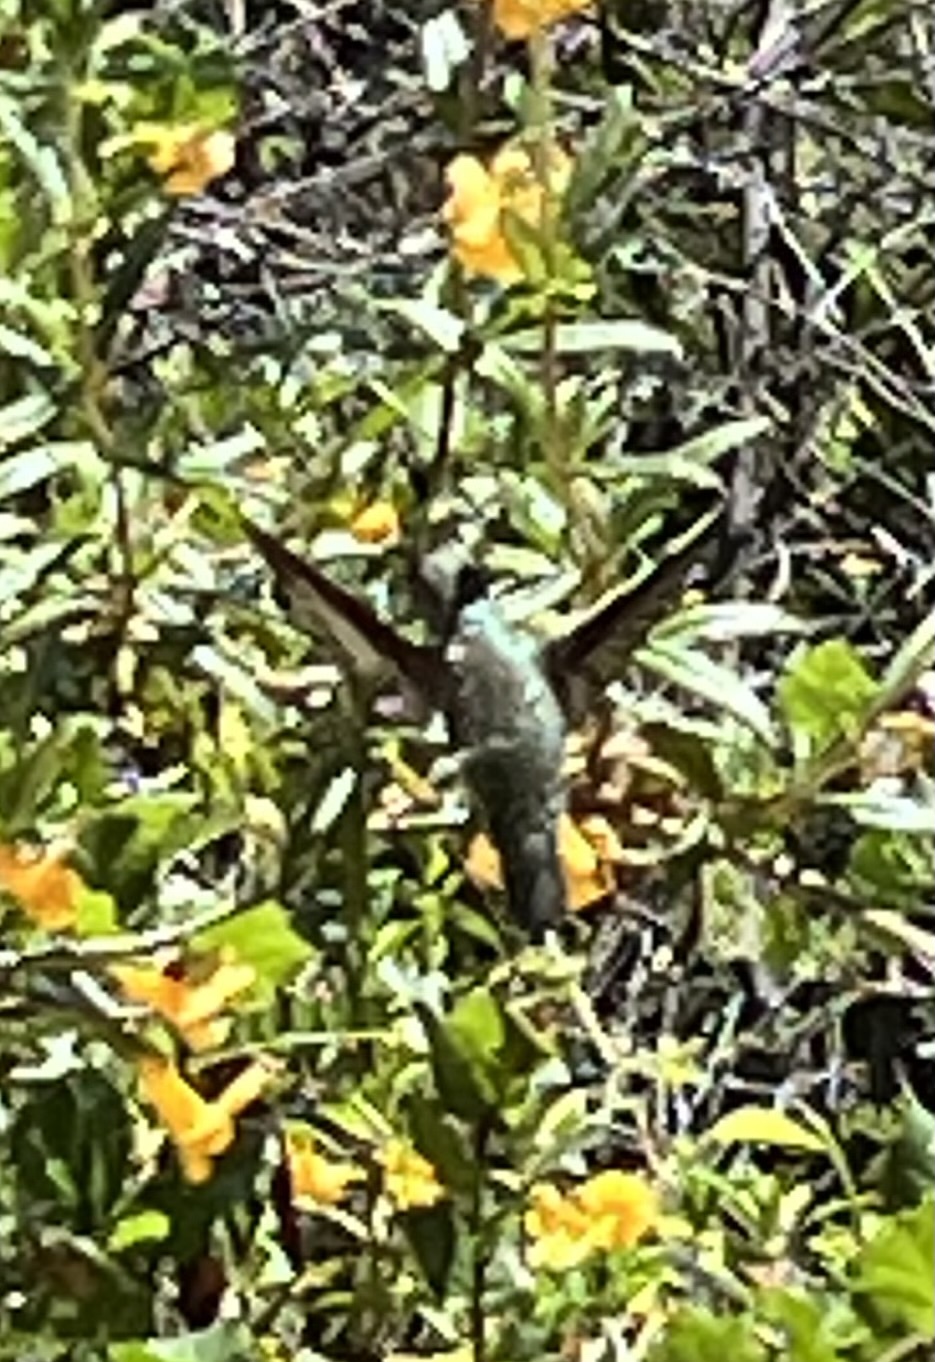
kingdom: Animalia
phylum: Chordata
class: Aves
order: Apodiformes
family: Trochilidae
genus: Calypte
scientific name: Calypte anna
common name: Anna's hummingbird
